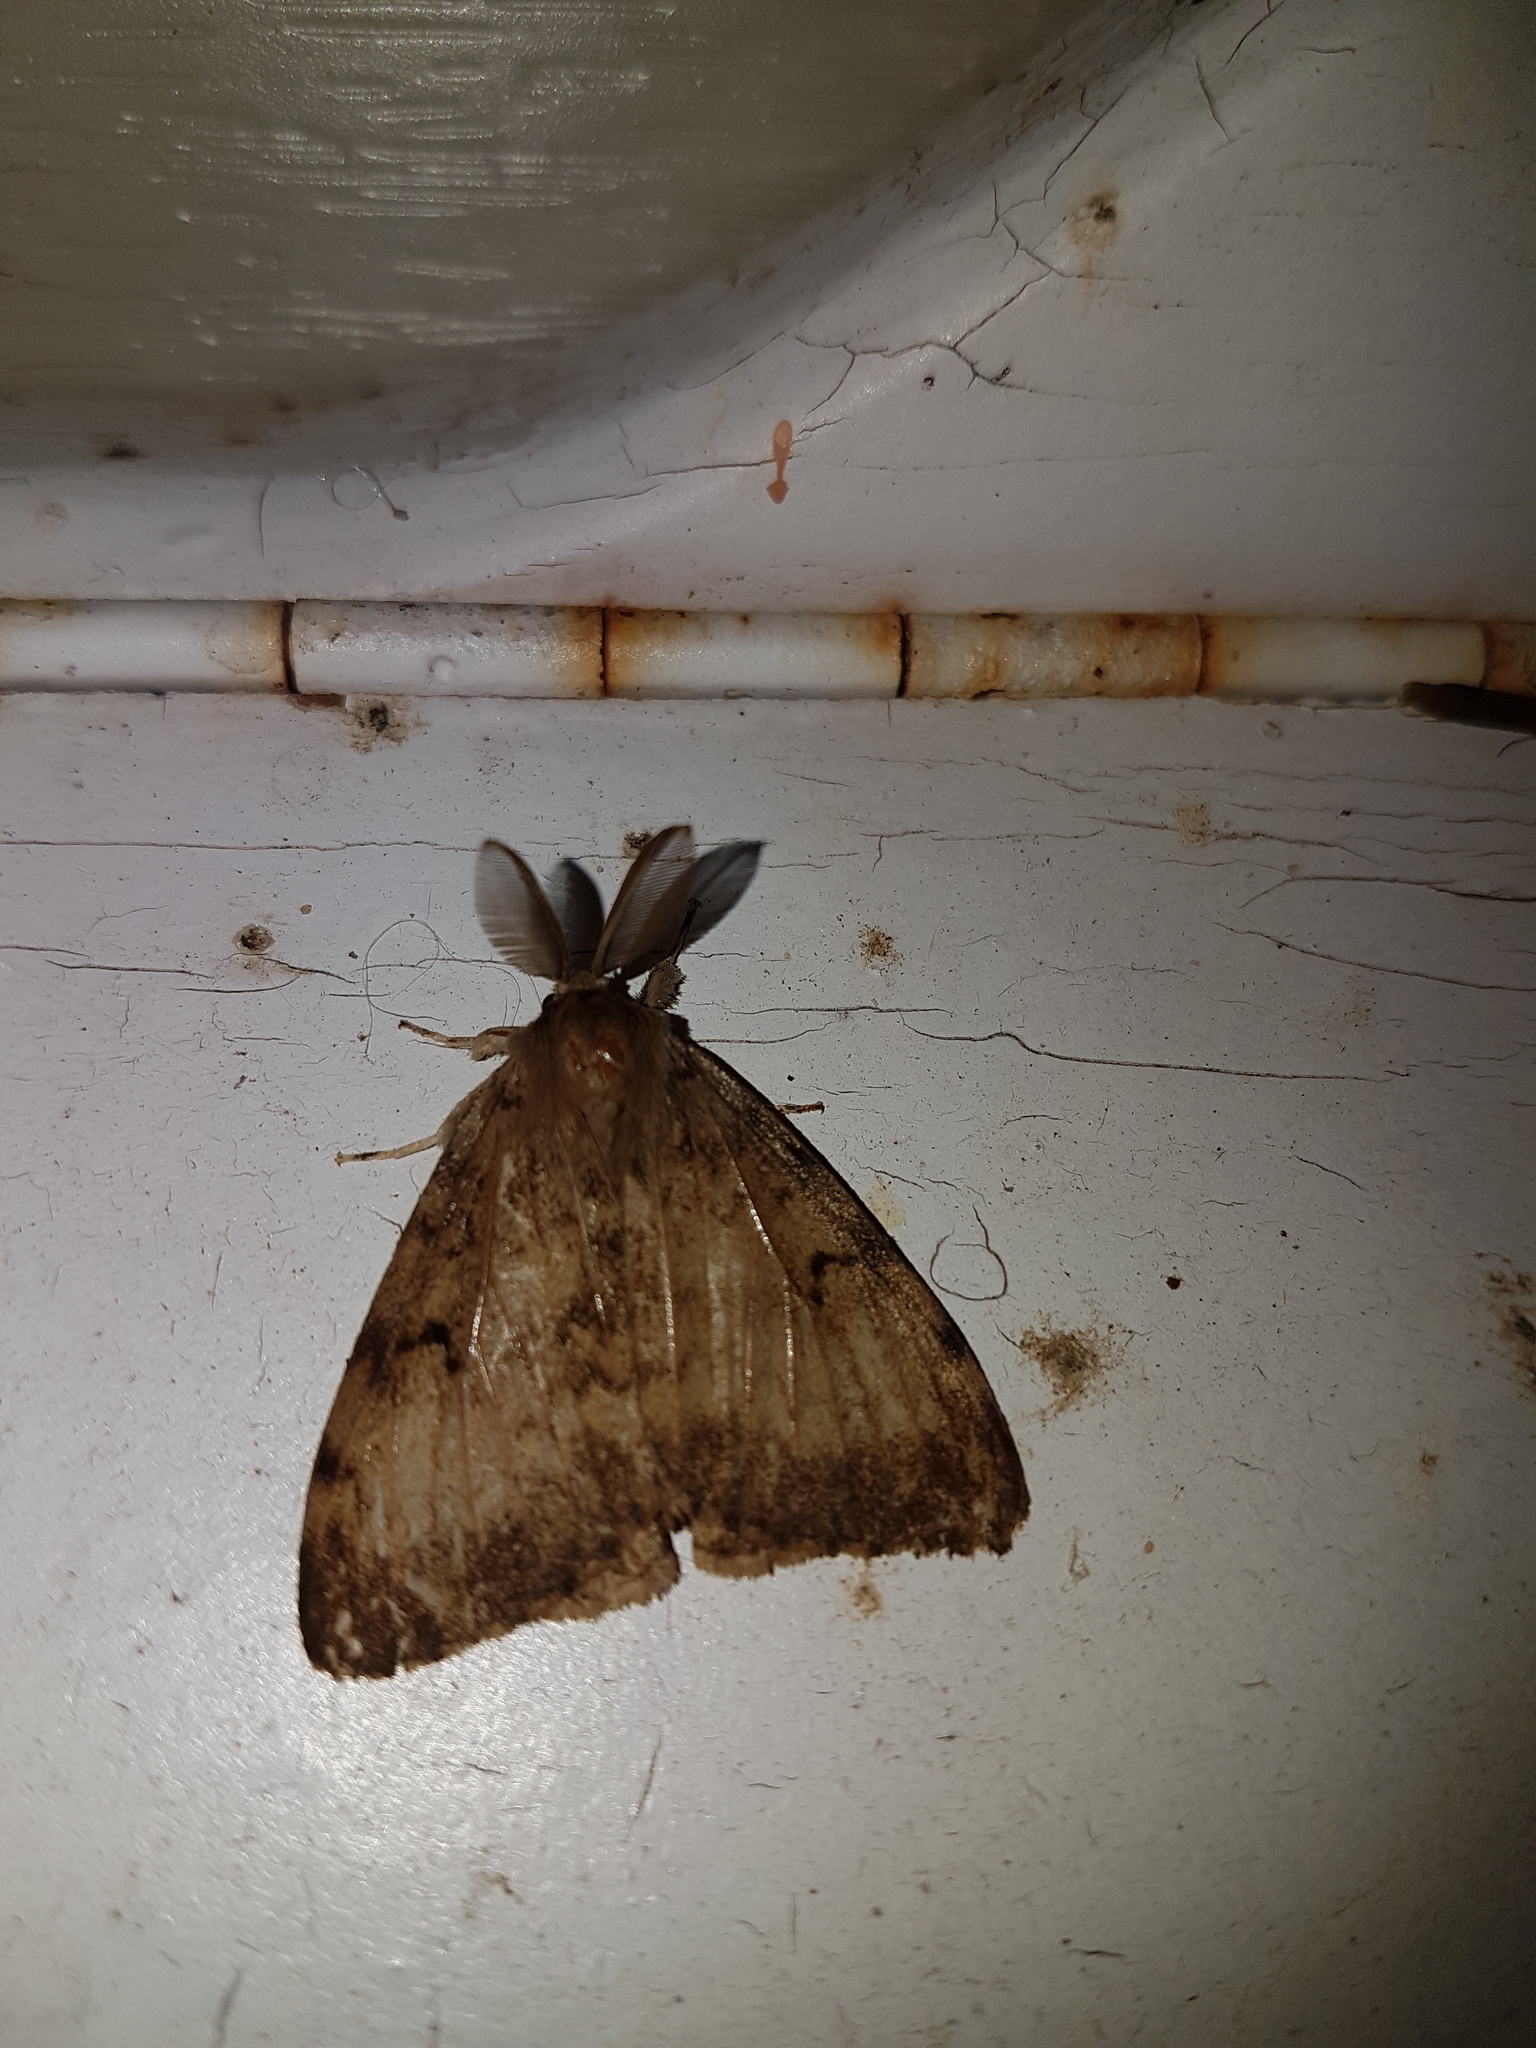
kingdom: Animalia
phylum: Arthropoda
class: Insecta
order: Lepidoptera
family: Erebidae
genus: Lymantria
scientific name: Lymantria dispar
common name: Gypsy moth
